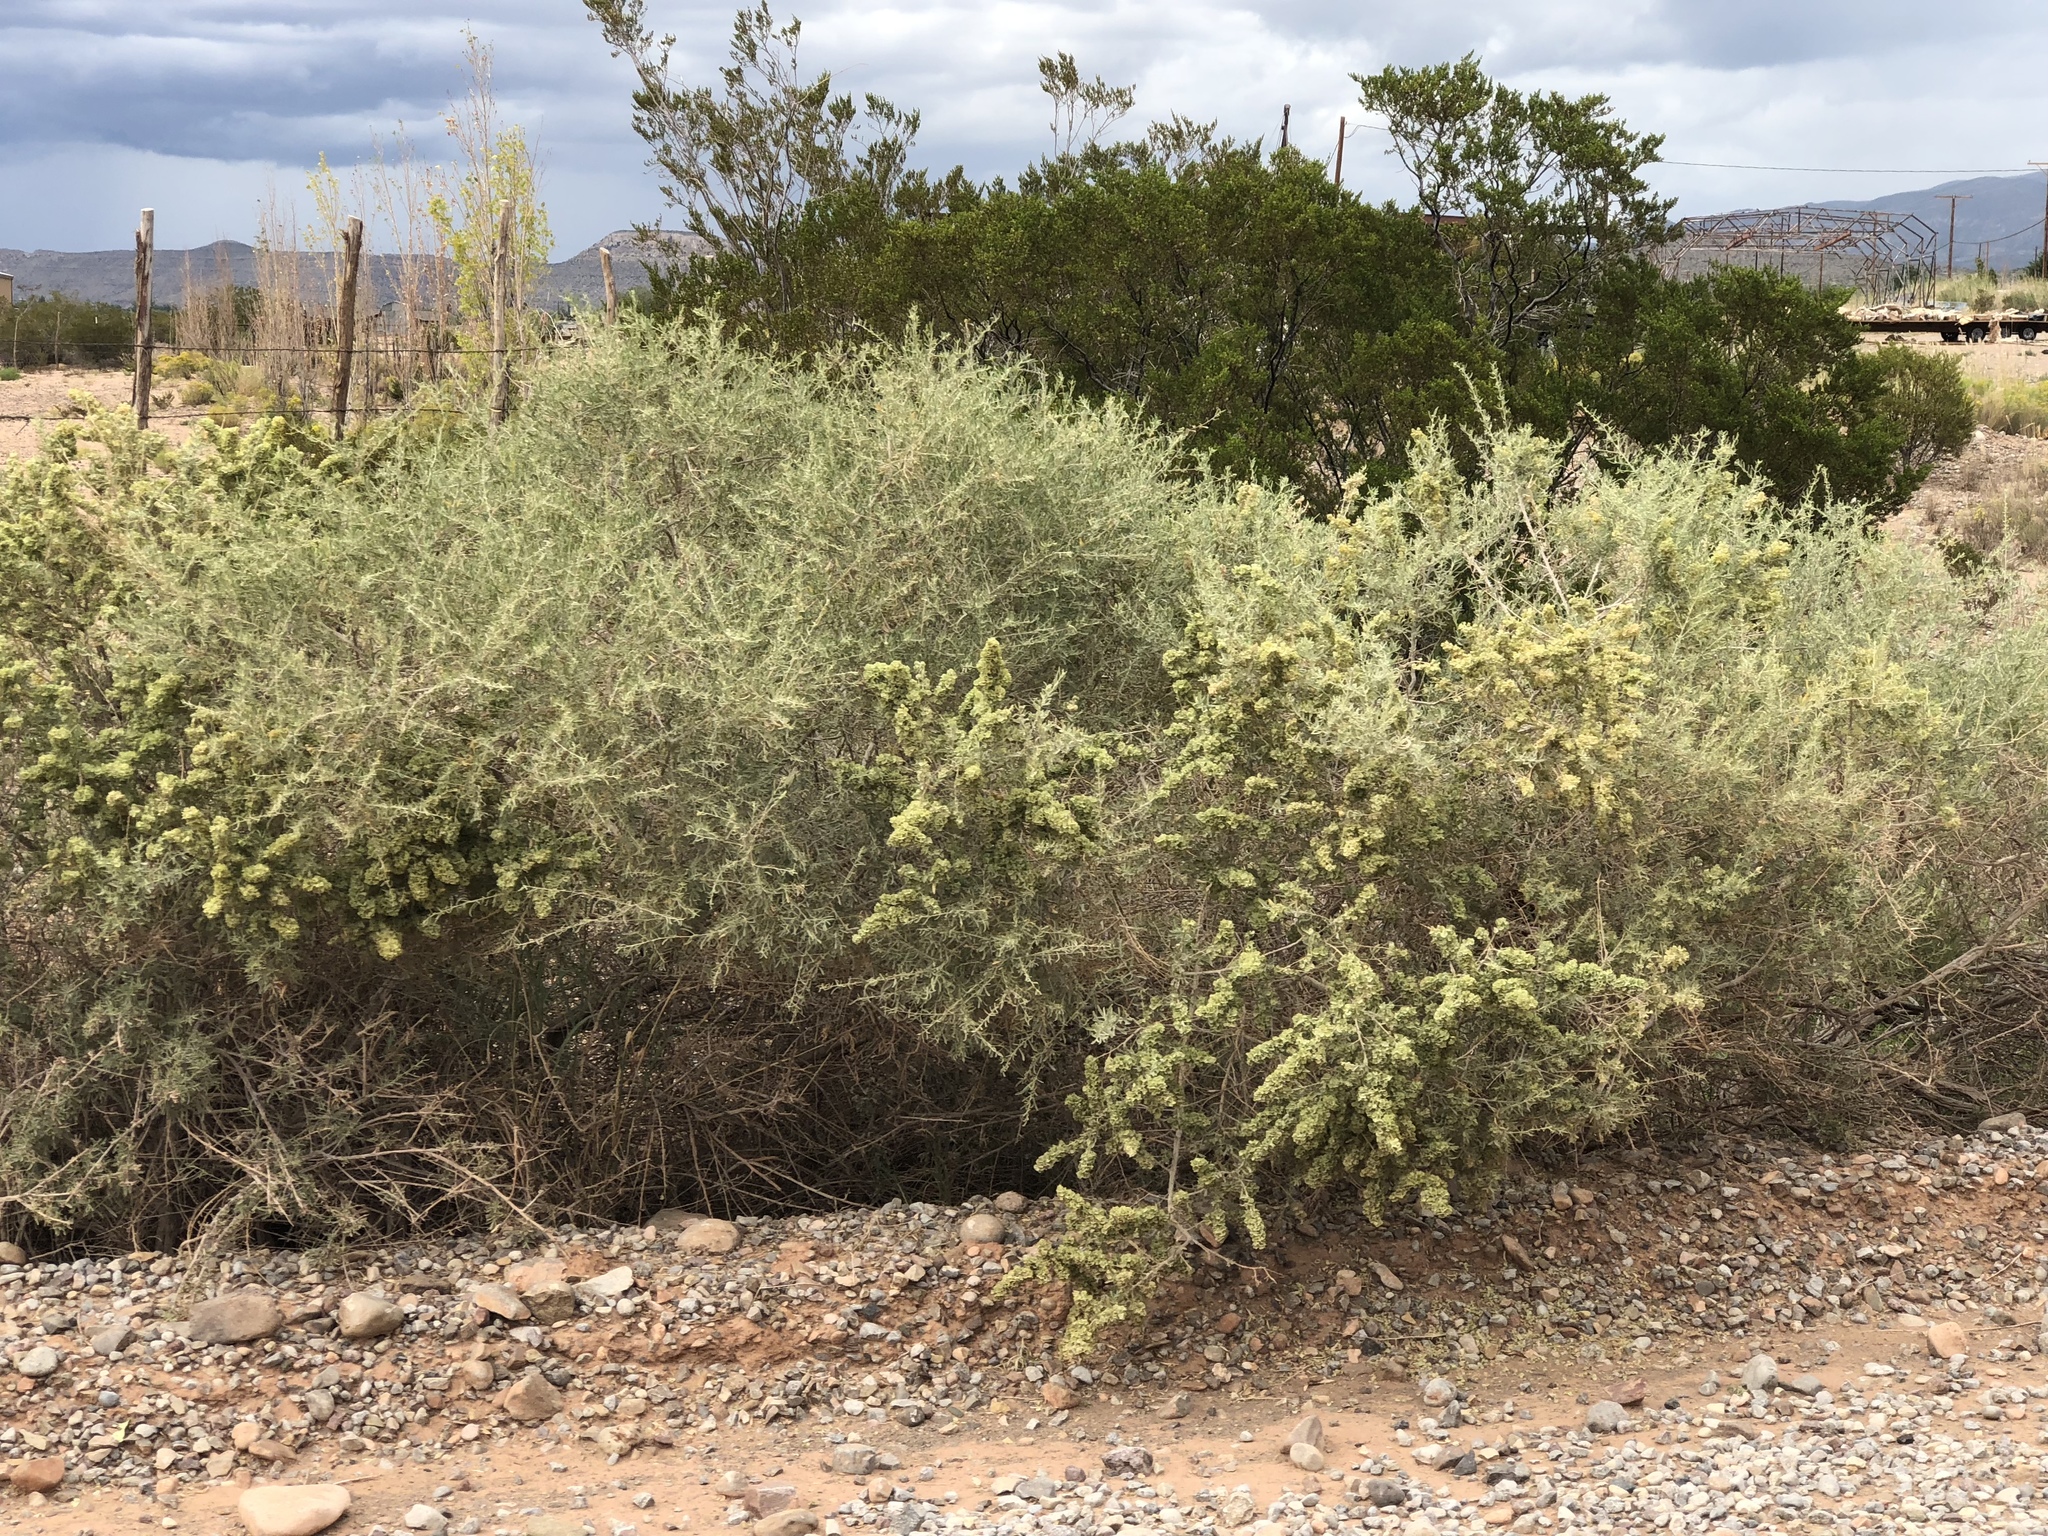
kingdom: Plantae
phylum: Tracheophyta
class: Magnoliopsida
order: Caryophyllales
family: Amaranthaceae
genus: Atriplex
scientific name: Atriplex canescens
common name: Four-wing saltbush
